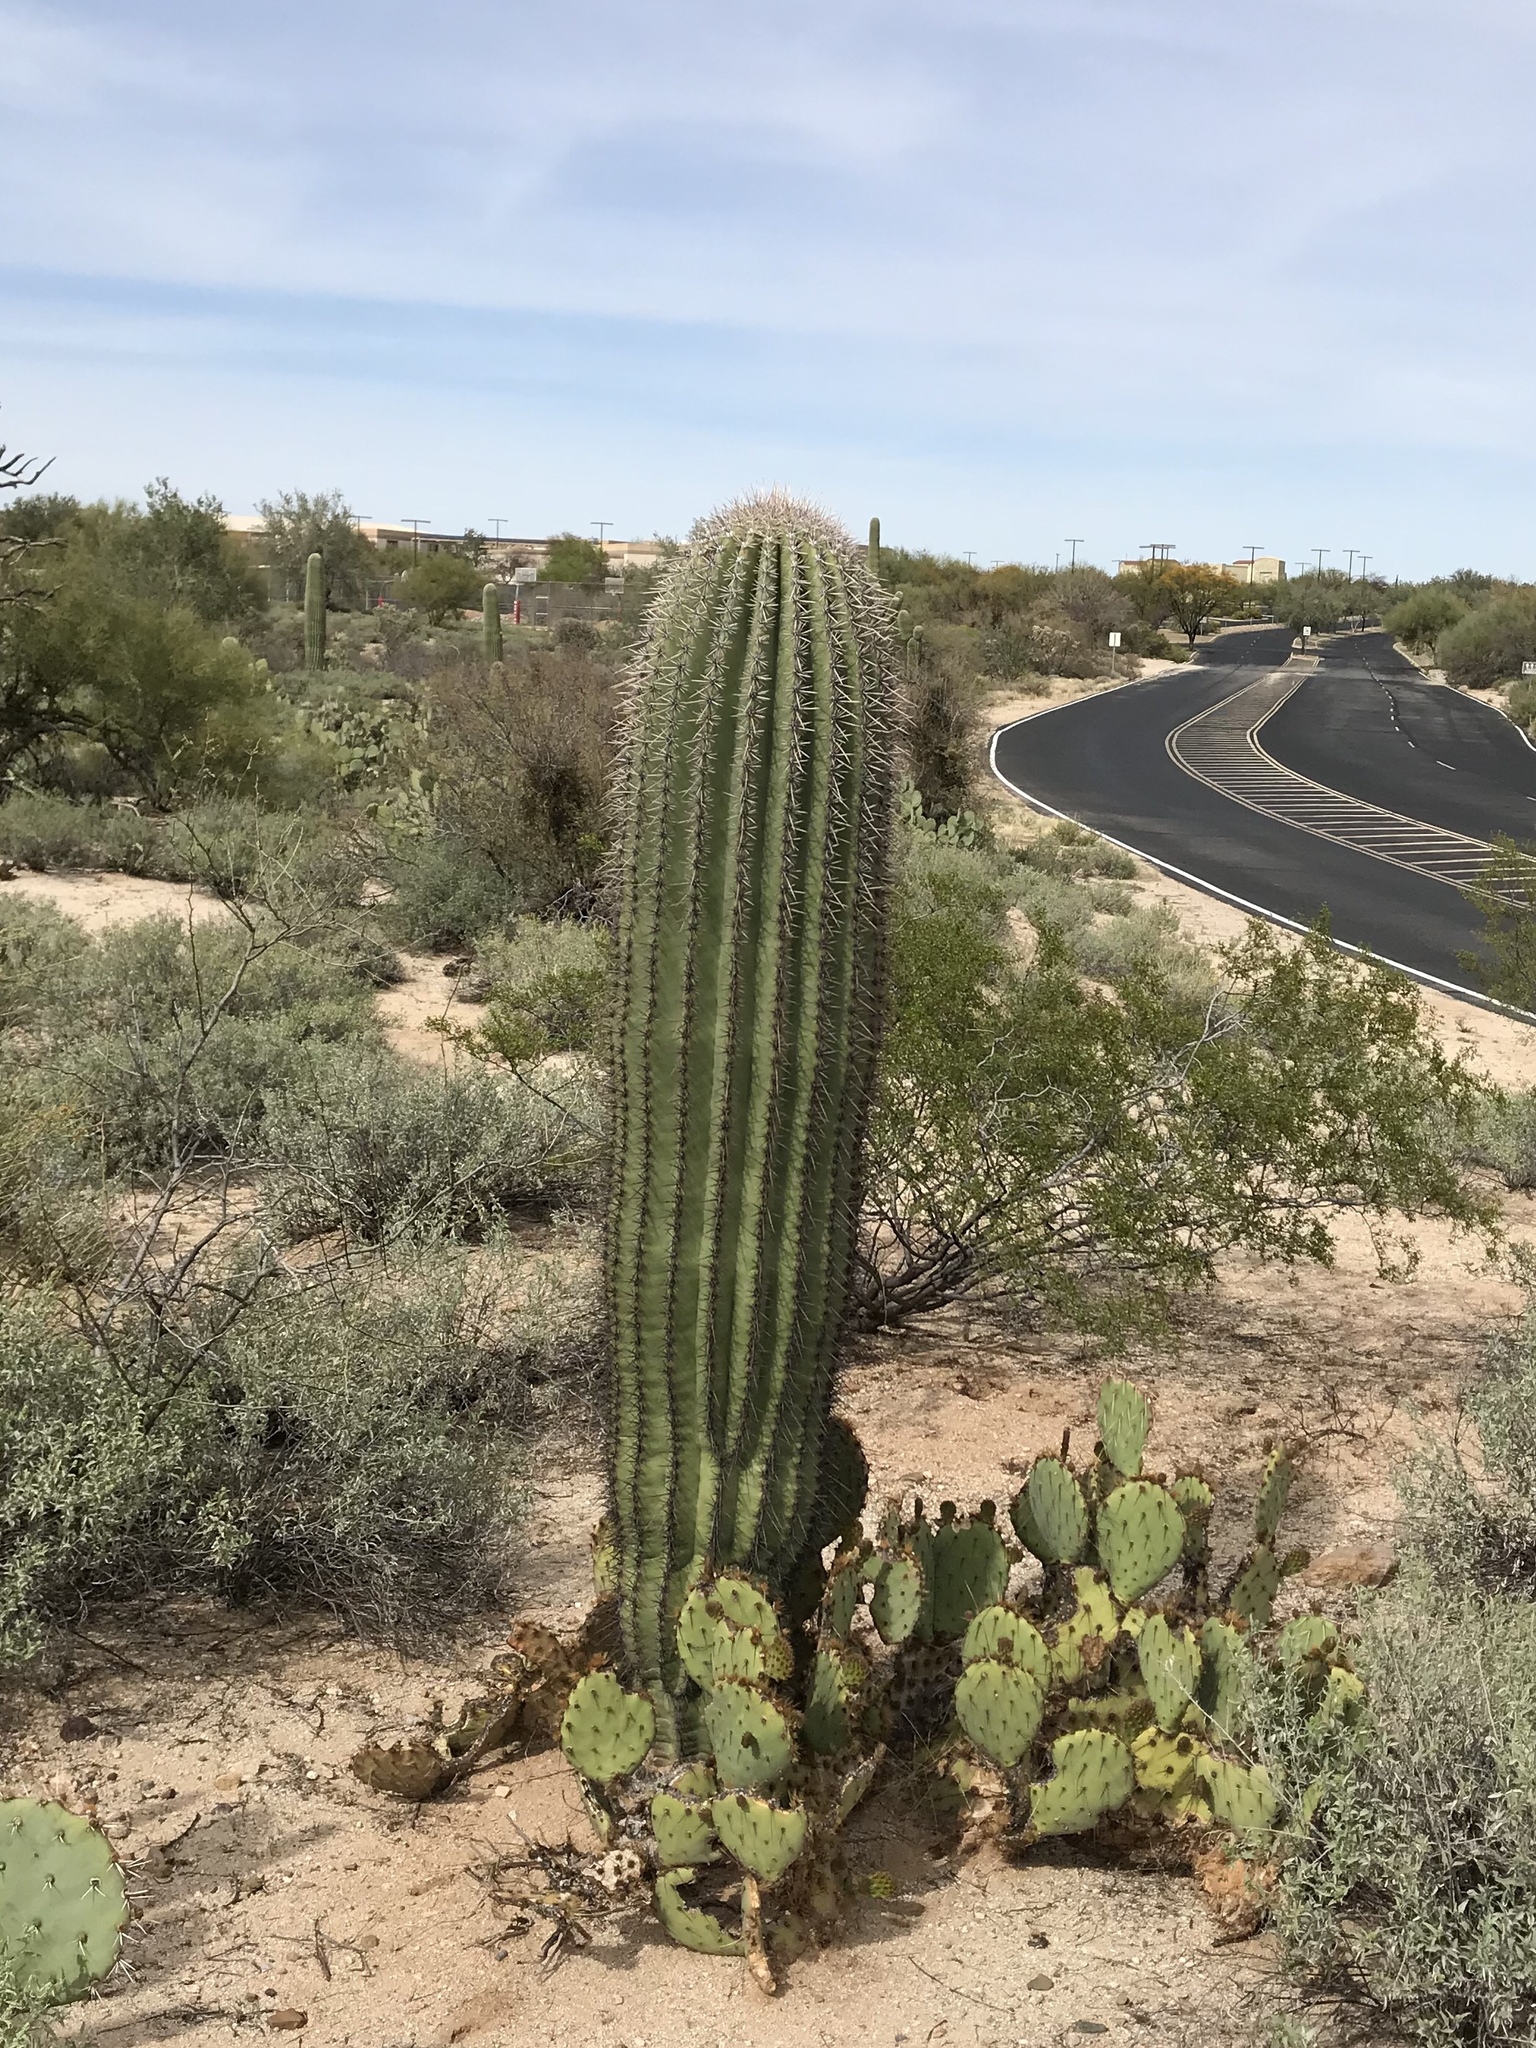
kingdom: Plantae
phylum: Tracheophyta
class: Magnoliopsida
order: Caryophyllales
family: Cactaceae
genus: Carnegiea
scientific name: Carnegiea gigantea
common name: Saguaro
